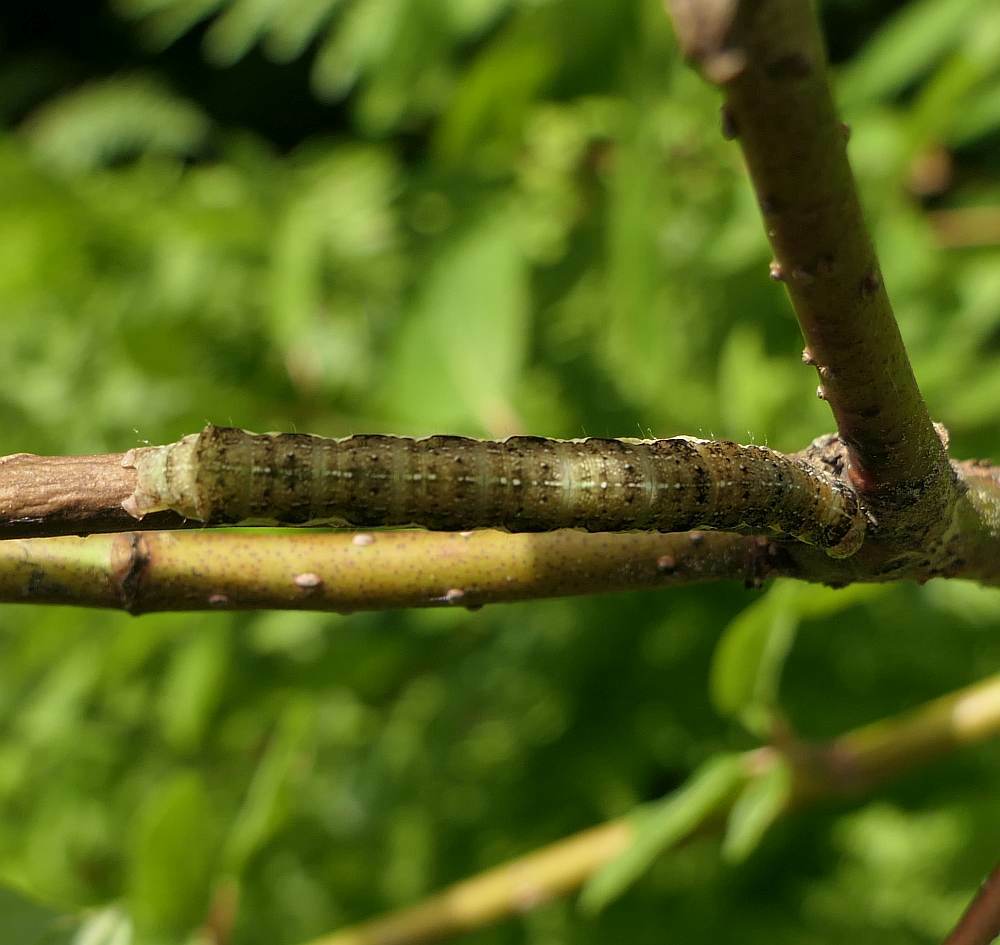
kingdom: Animalia
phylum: Arthropoda
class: Insecta
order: Lepidoptera
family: Noctuidae
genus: Orthosia
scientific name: Orthosia rubescens
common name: Ruby quaker
